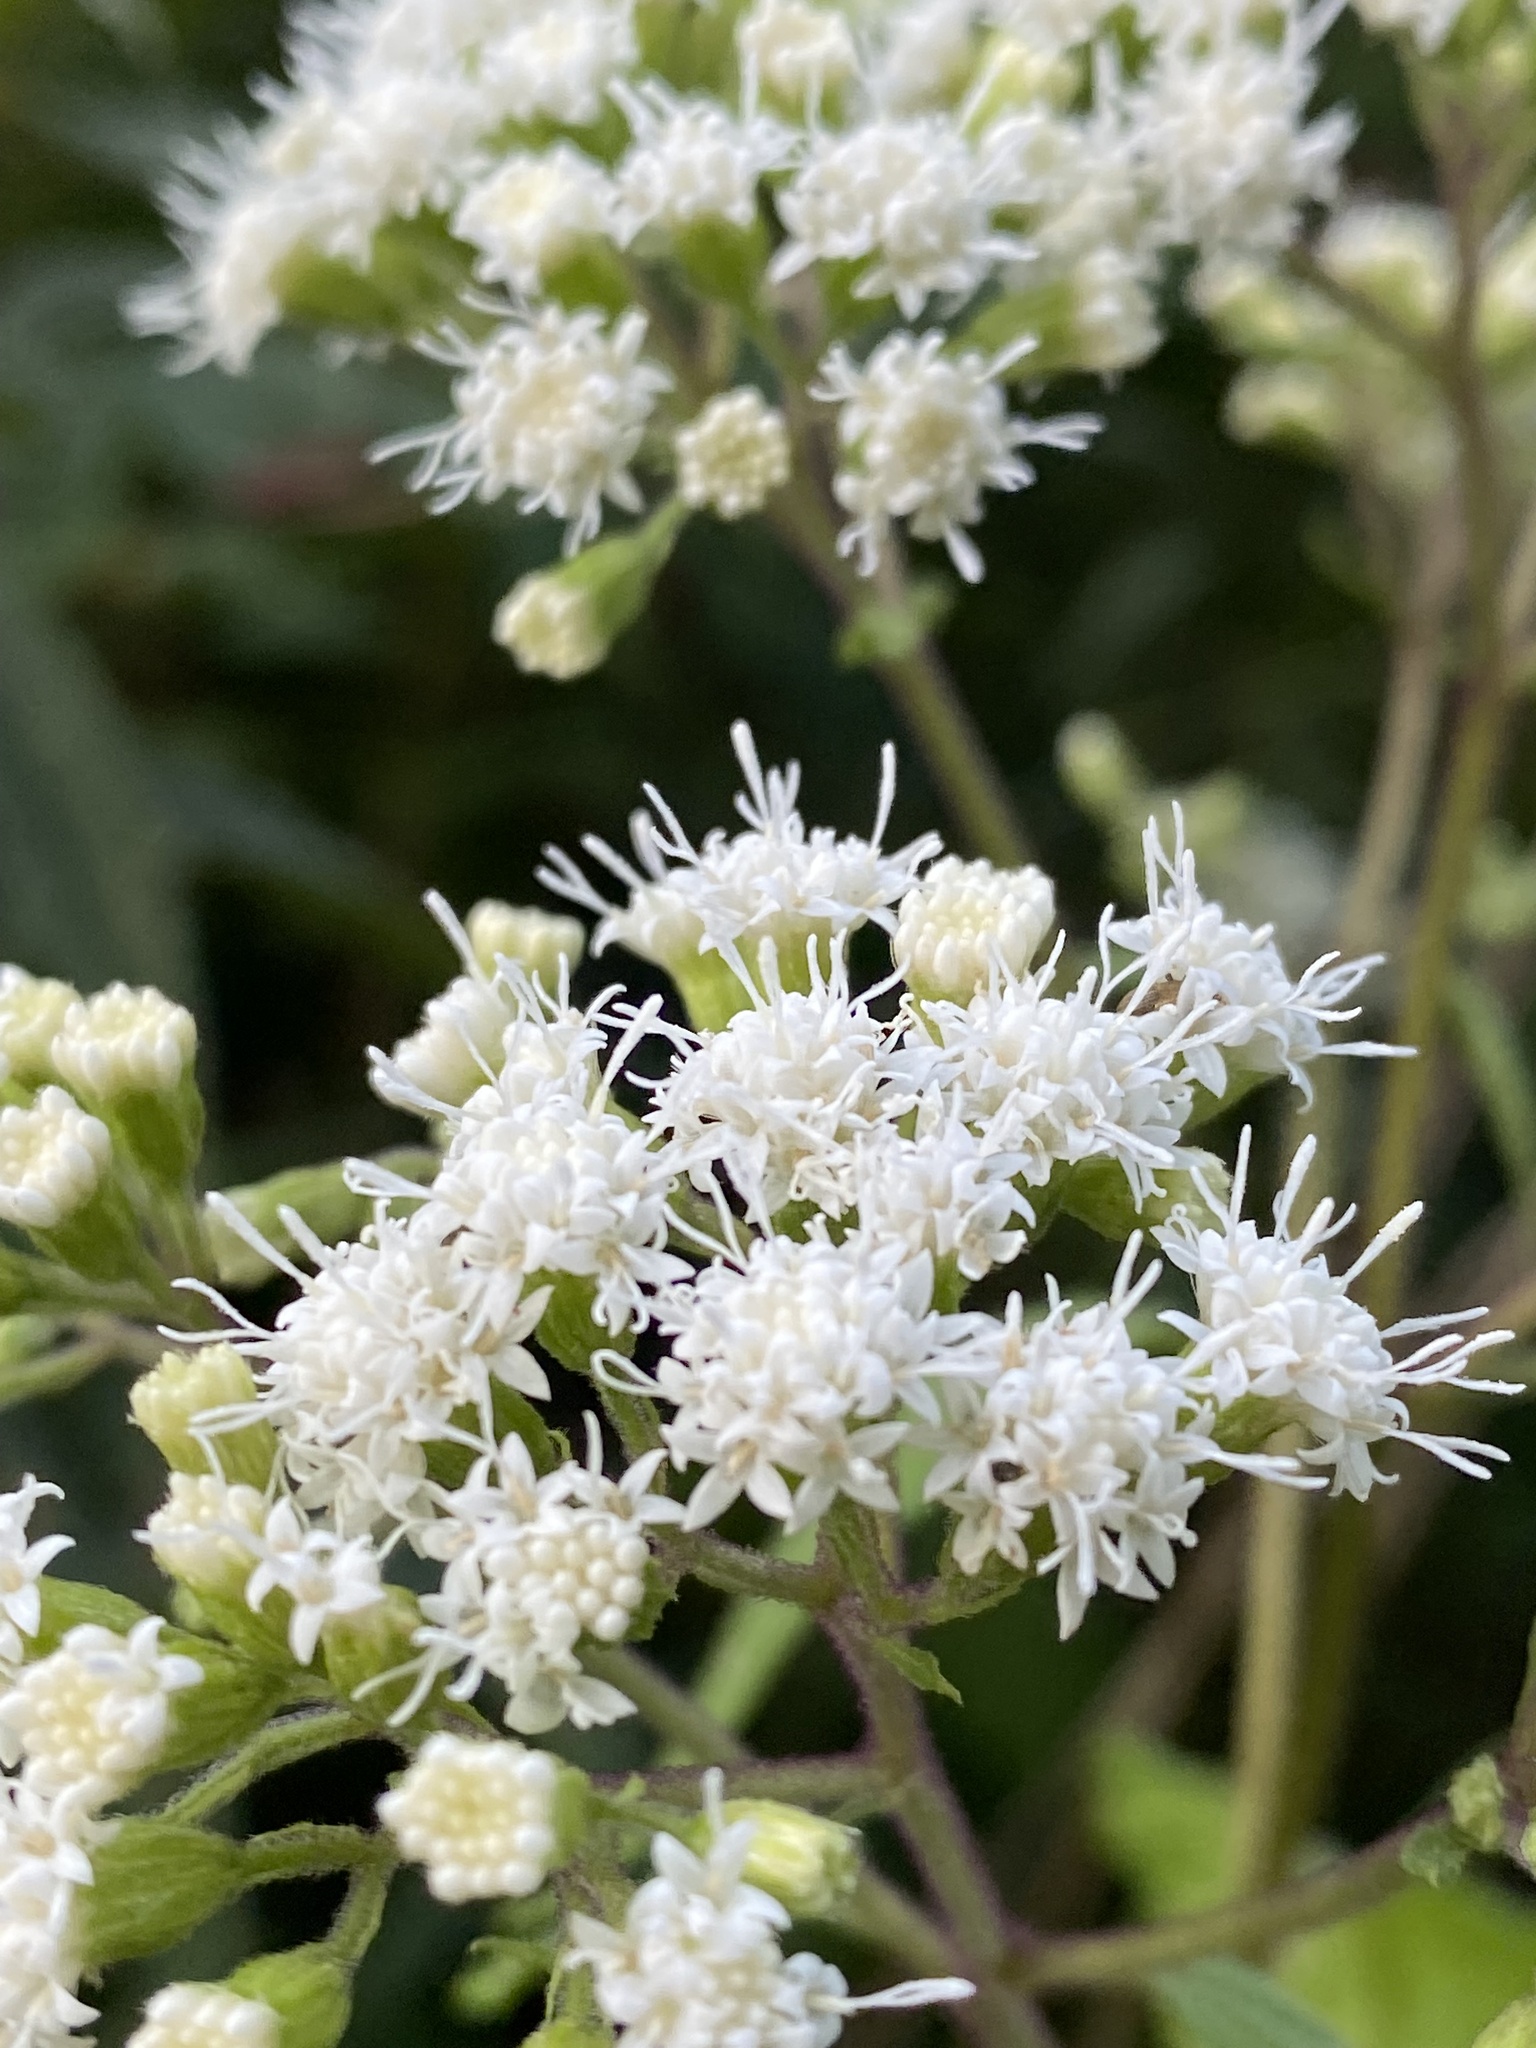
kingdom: Plantae
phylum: Tracheophyta
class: Magnoliopsida
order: Asterales
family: Asteraceae
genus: Ageratina
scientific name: Ageratina altissima
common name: White snakeroot
